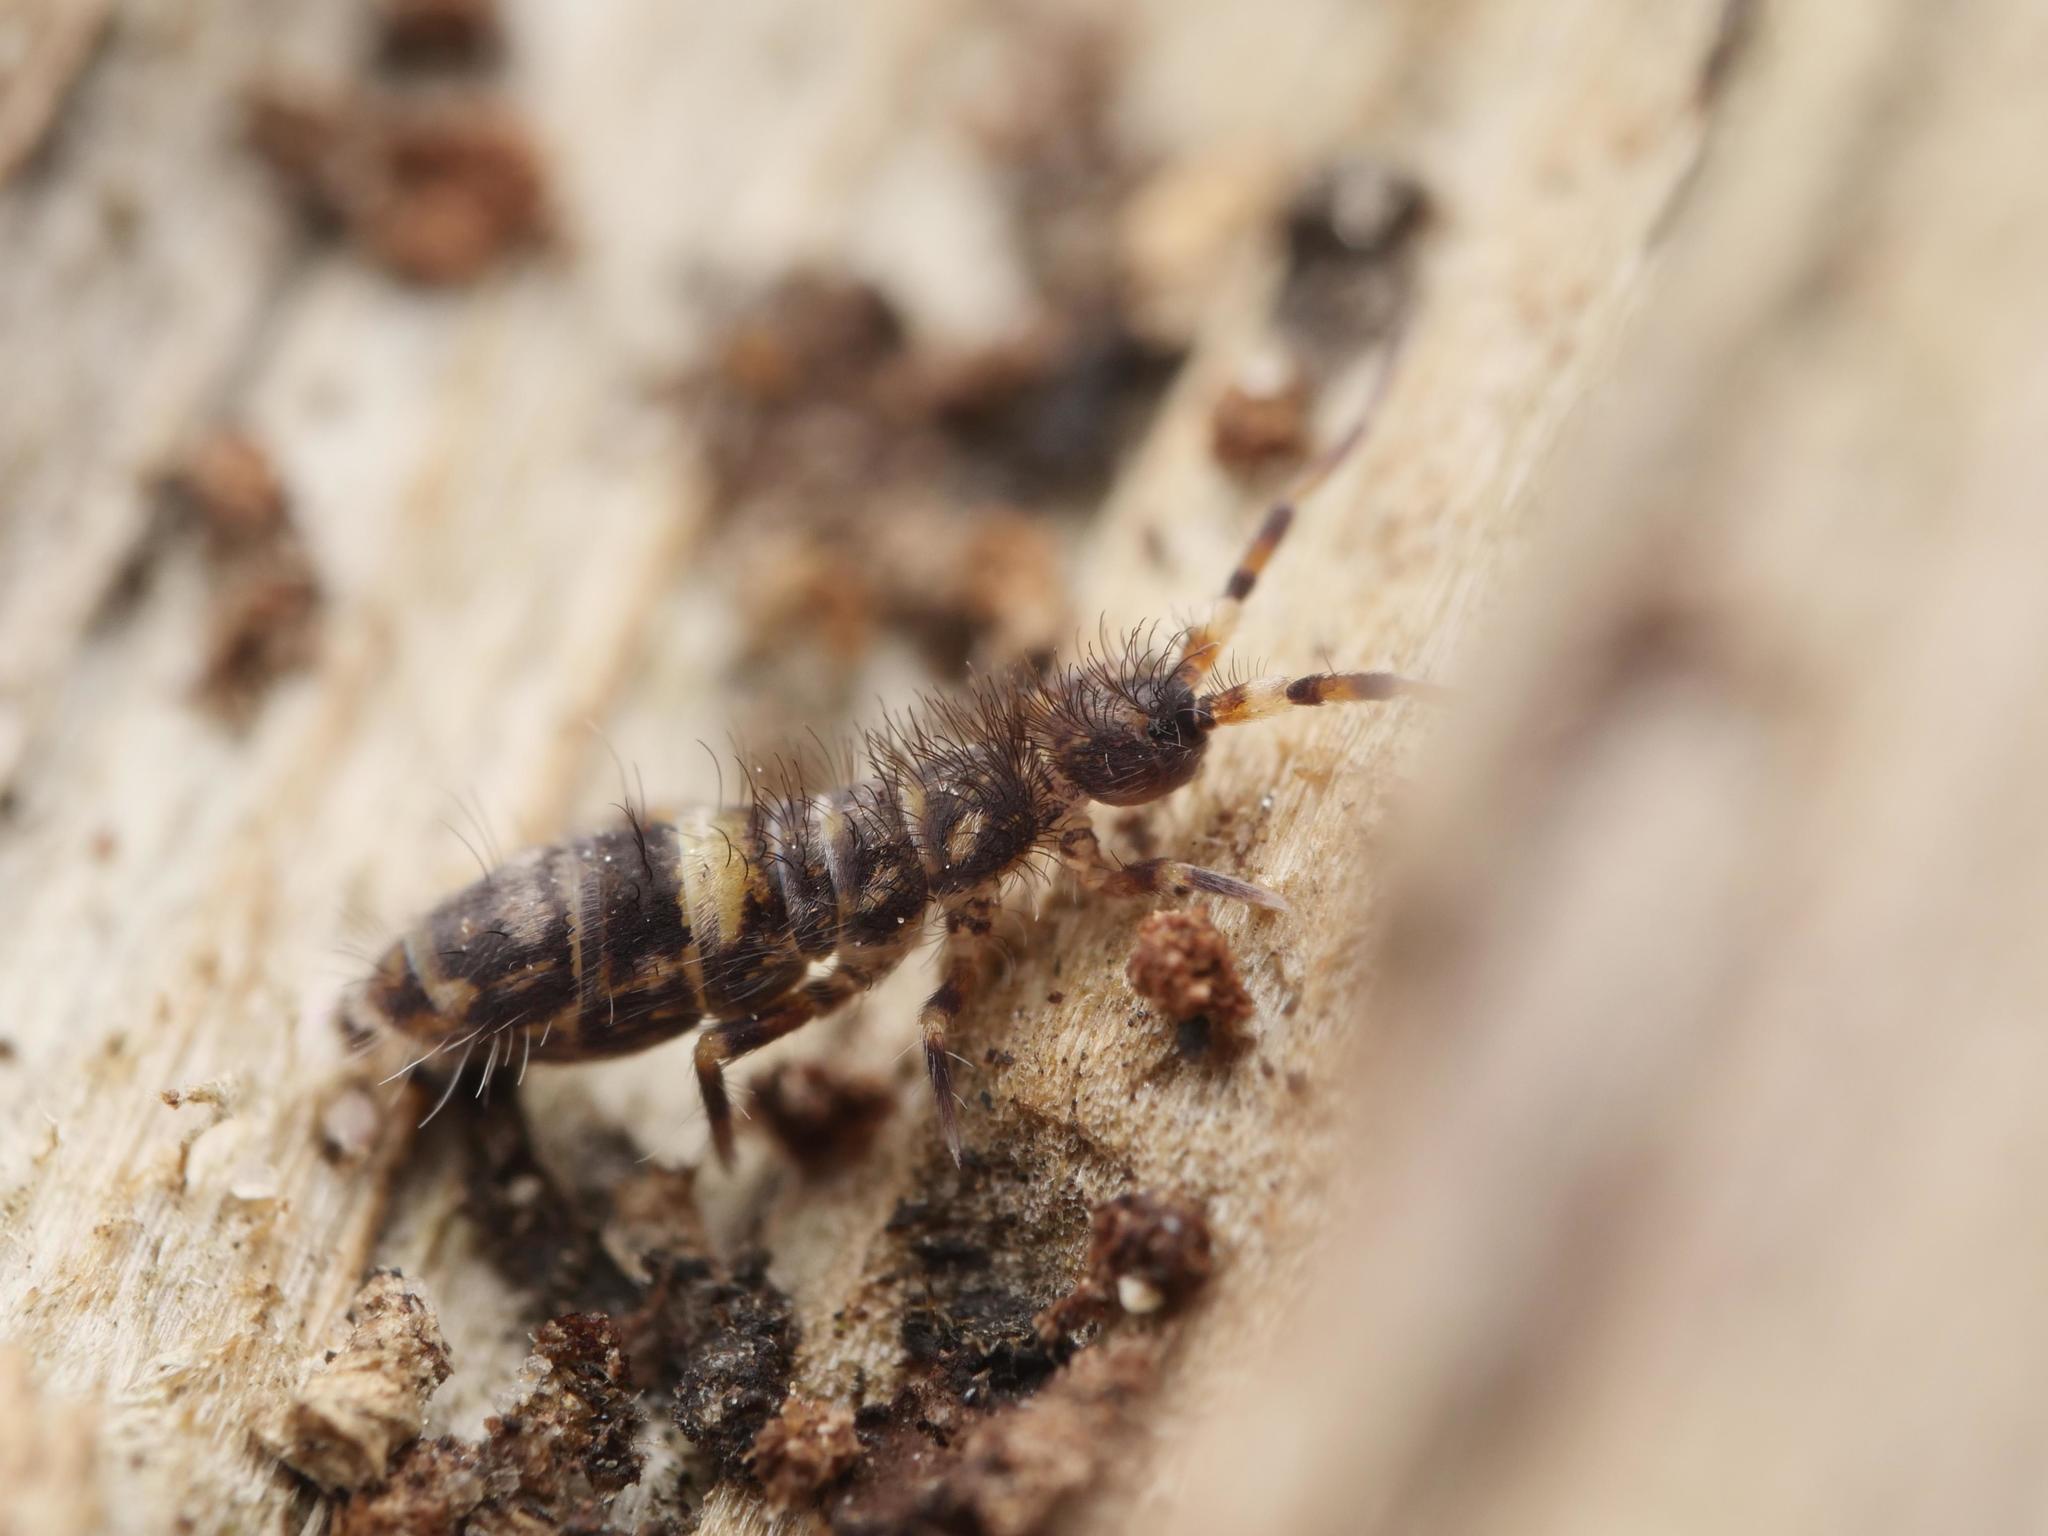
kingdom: Animalia
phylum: Arthropoda
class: Collembola
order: Entomobryomorpha
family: Orchesellidae
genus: Orchesella
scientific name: Orchesella cincta
